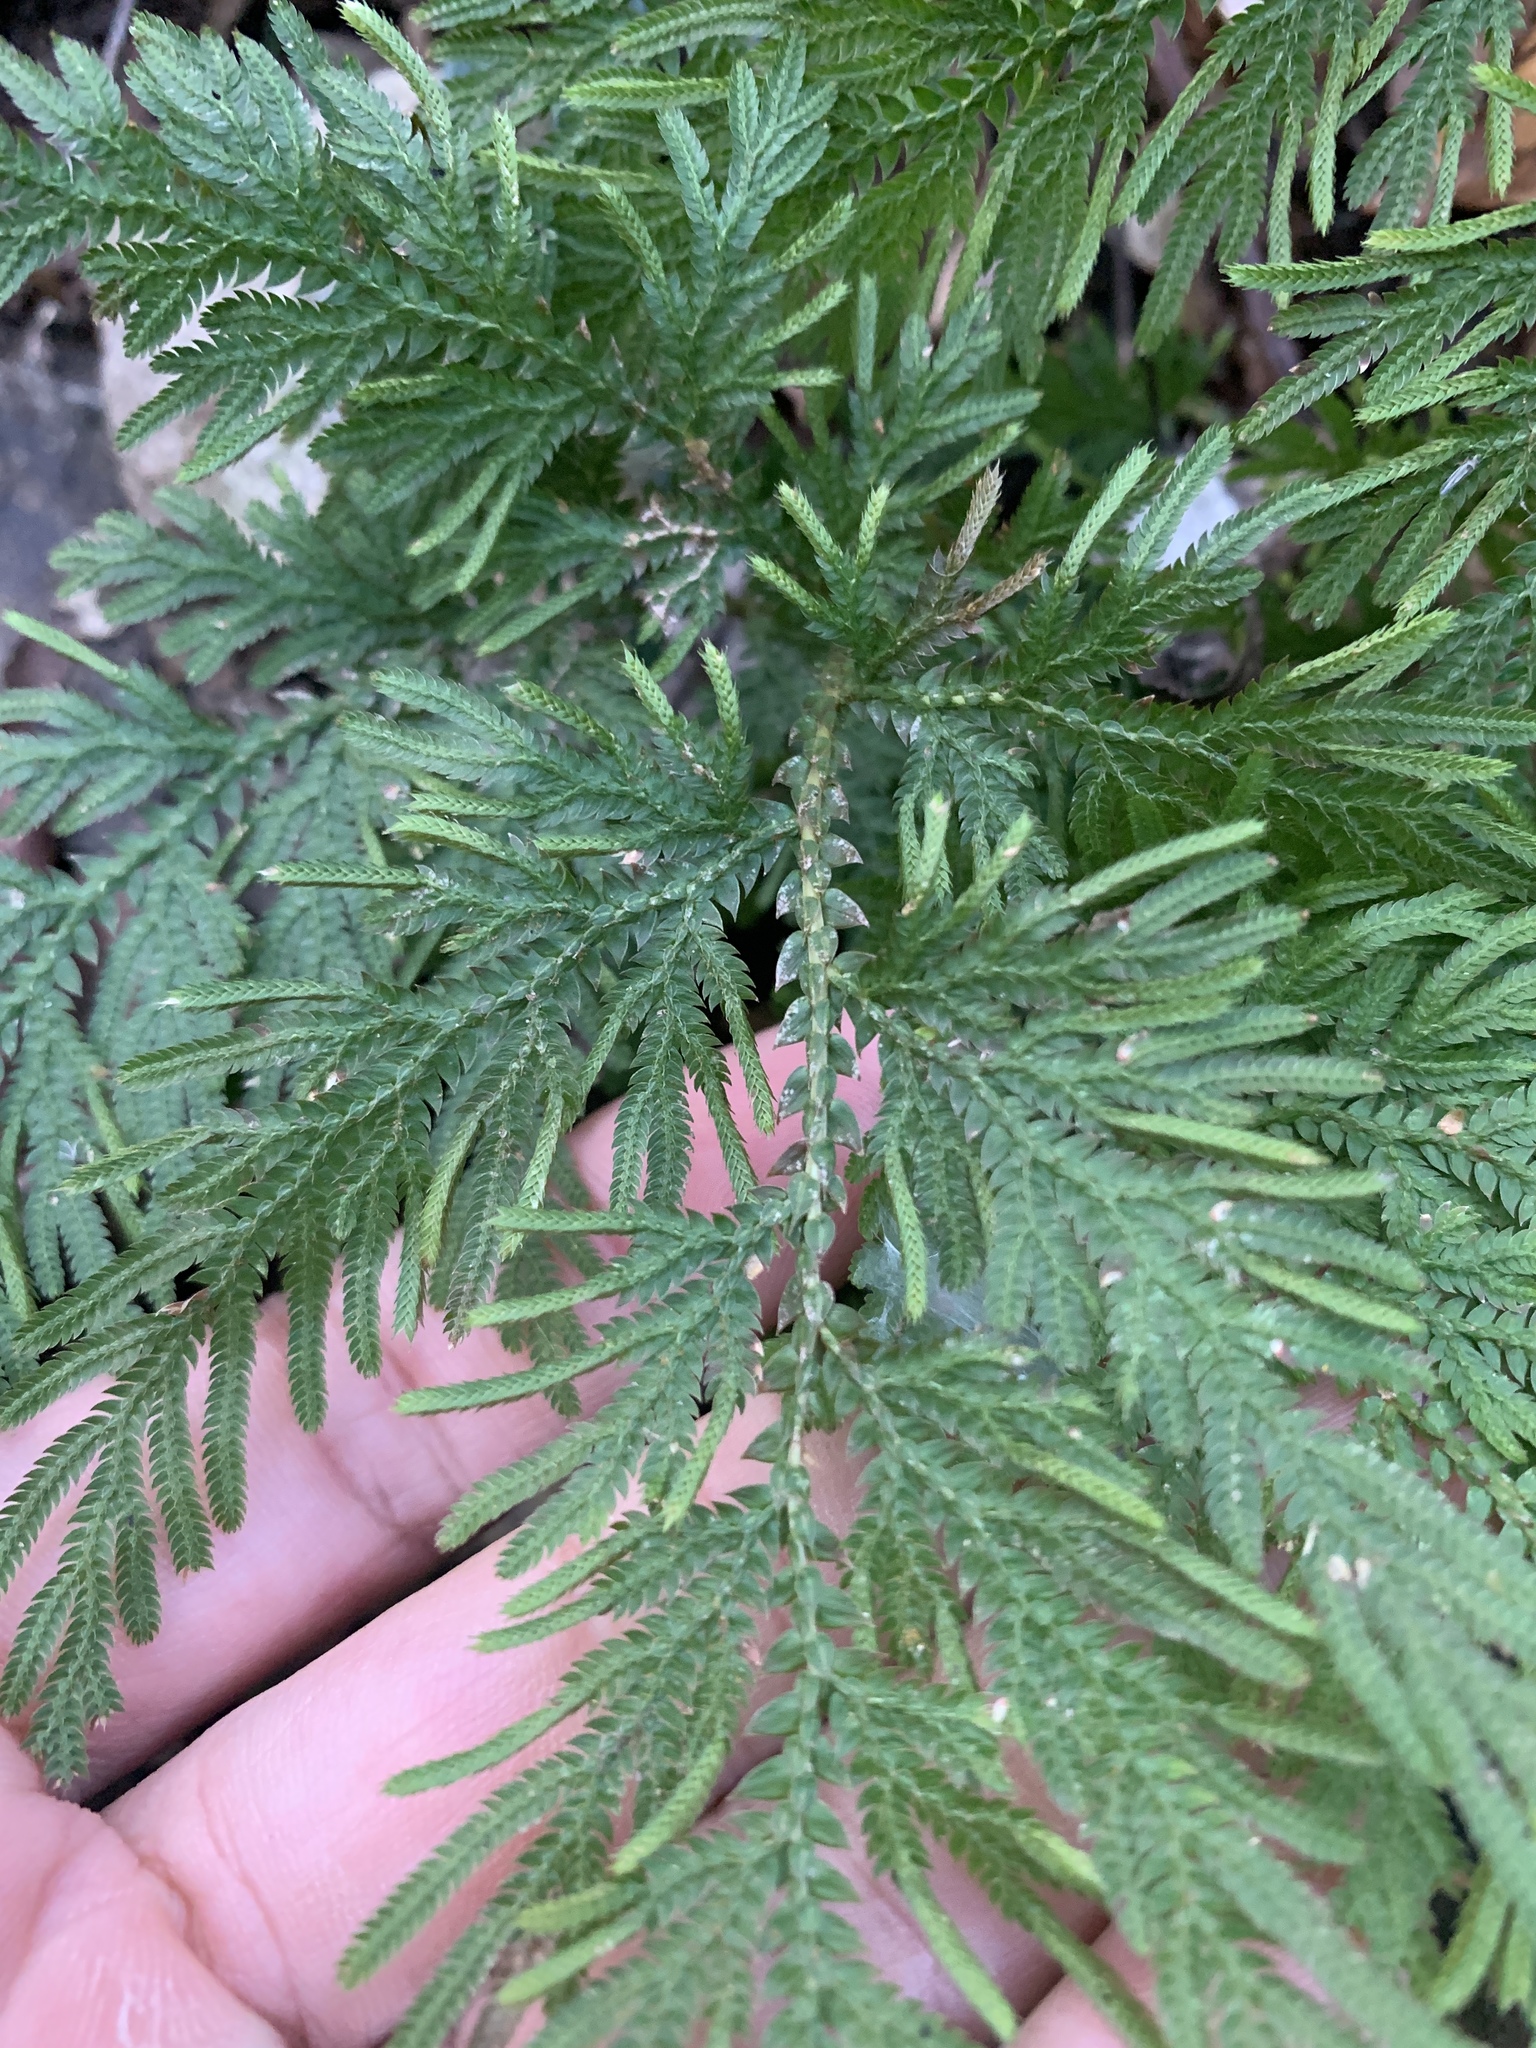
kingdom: Plantae
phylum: Tracheophyta
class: Lycopodiopsida
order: Selaginellales
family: Selaginellaceae
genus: Selaginella
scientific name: Selaginella moellendorffii
